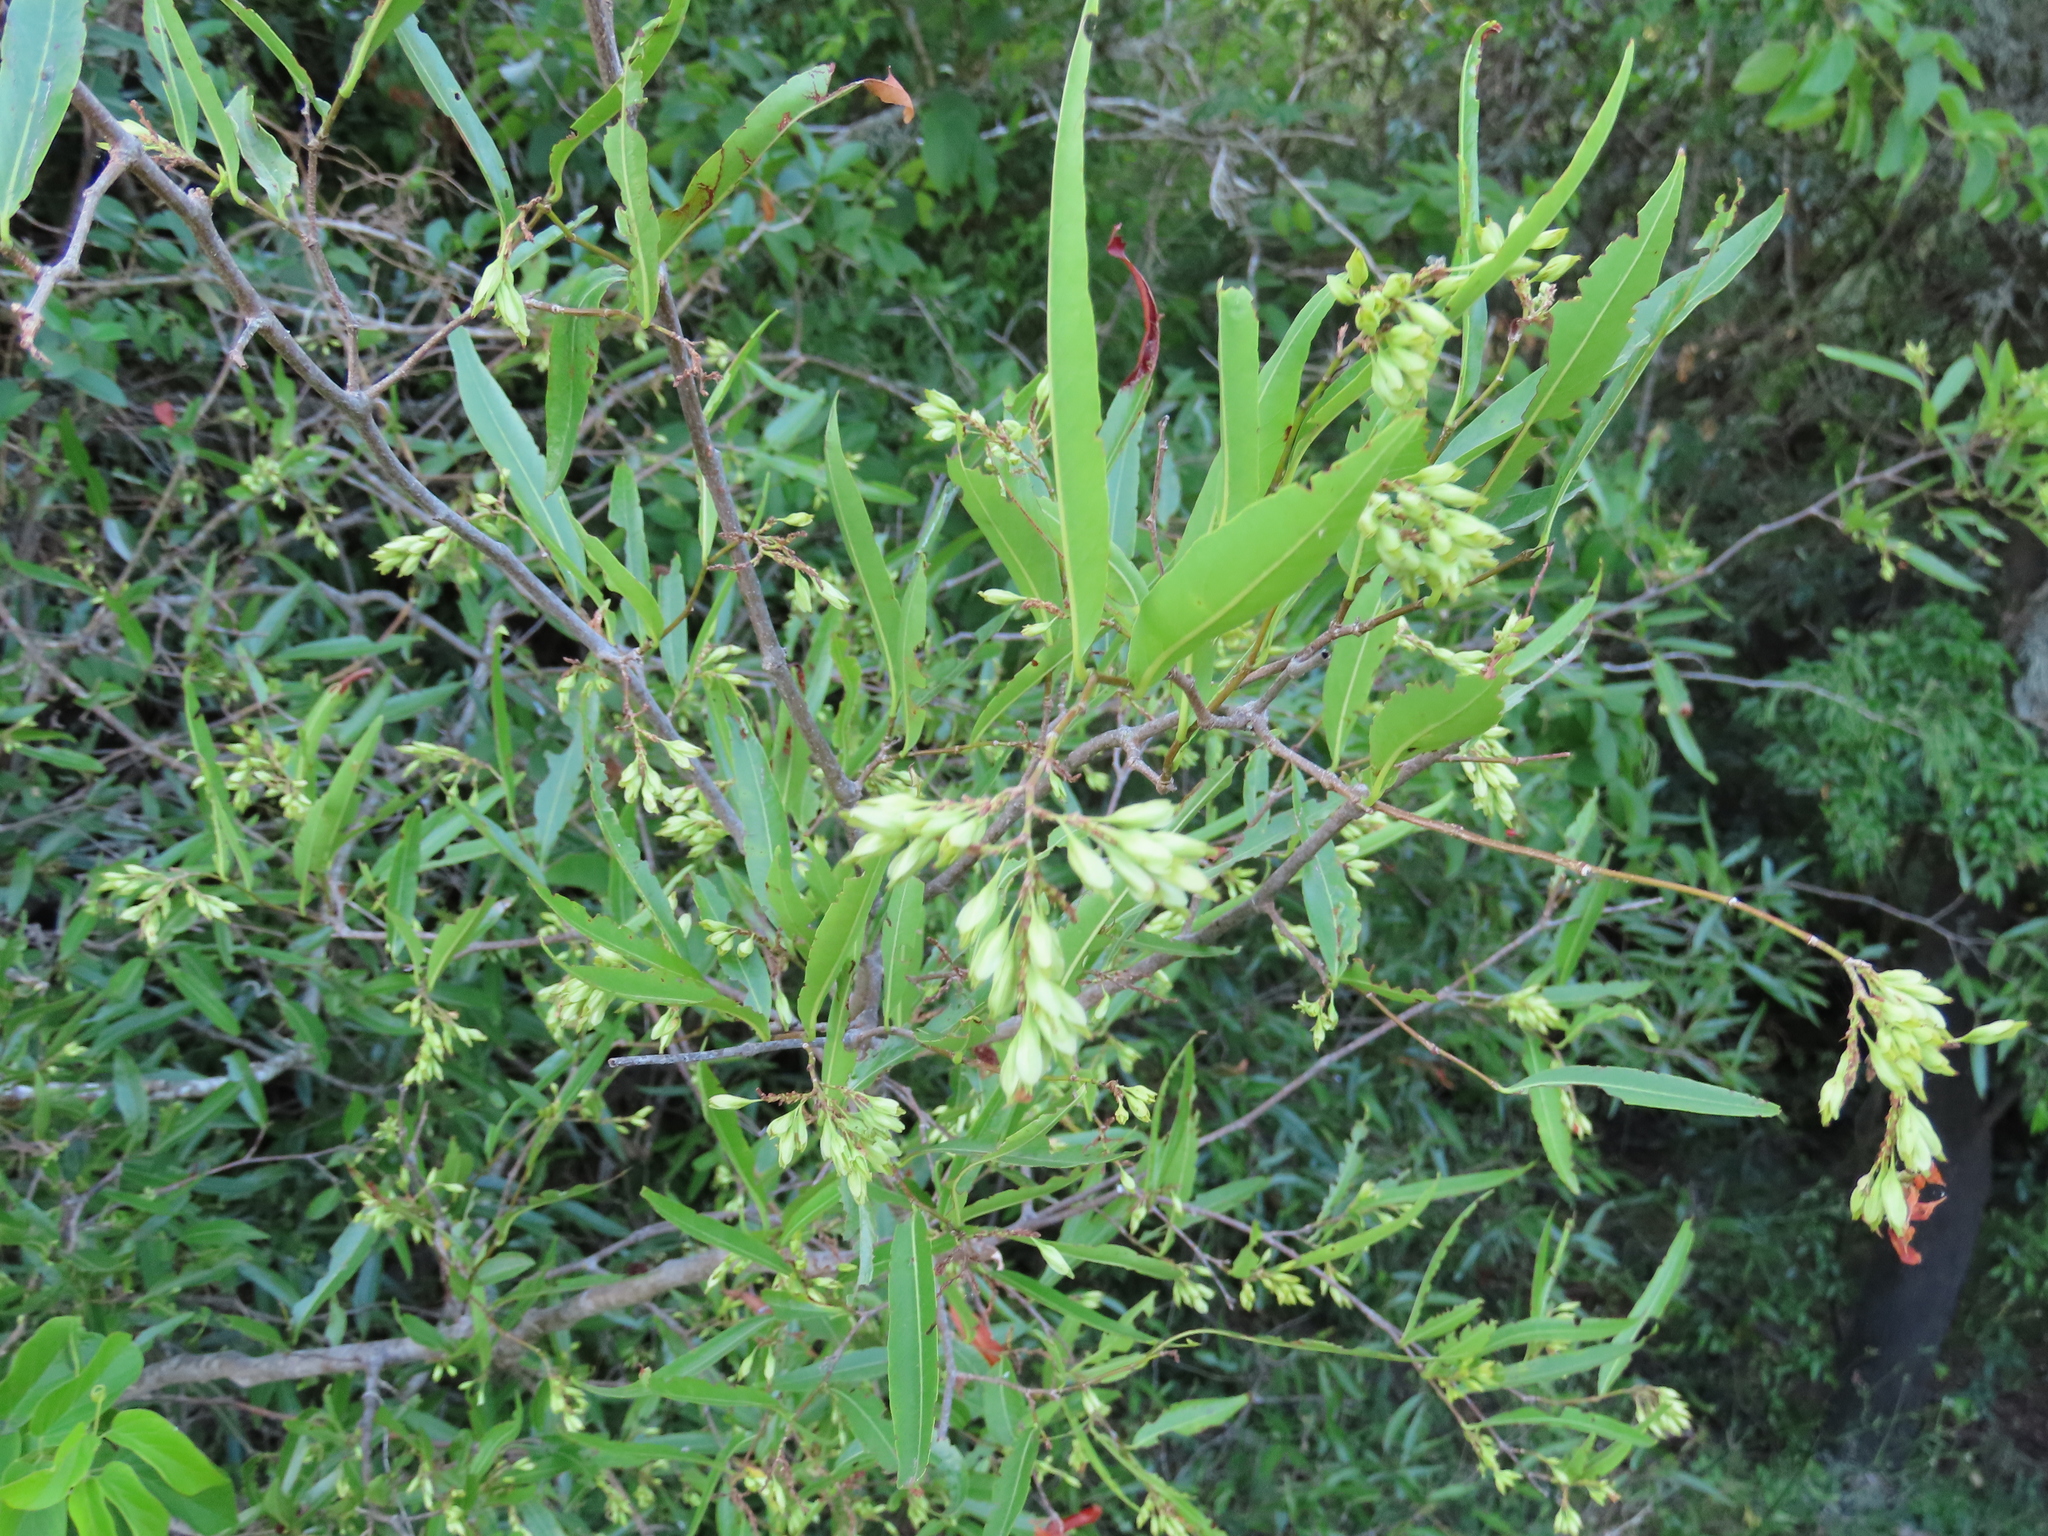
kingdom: Plantae
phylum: Tracheophyta
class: Magnoliopsida
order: Caryophyllales
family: Polygonaceae
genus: Ruprechtia
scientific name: Ruprechtia salicifolia
